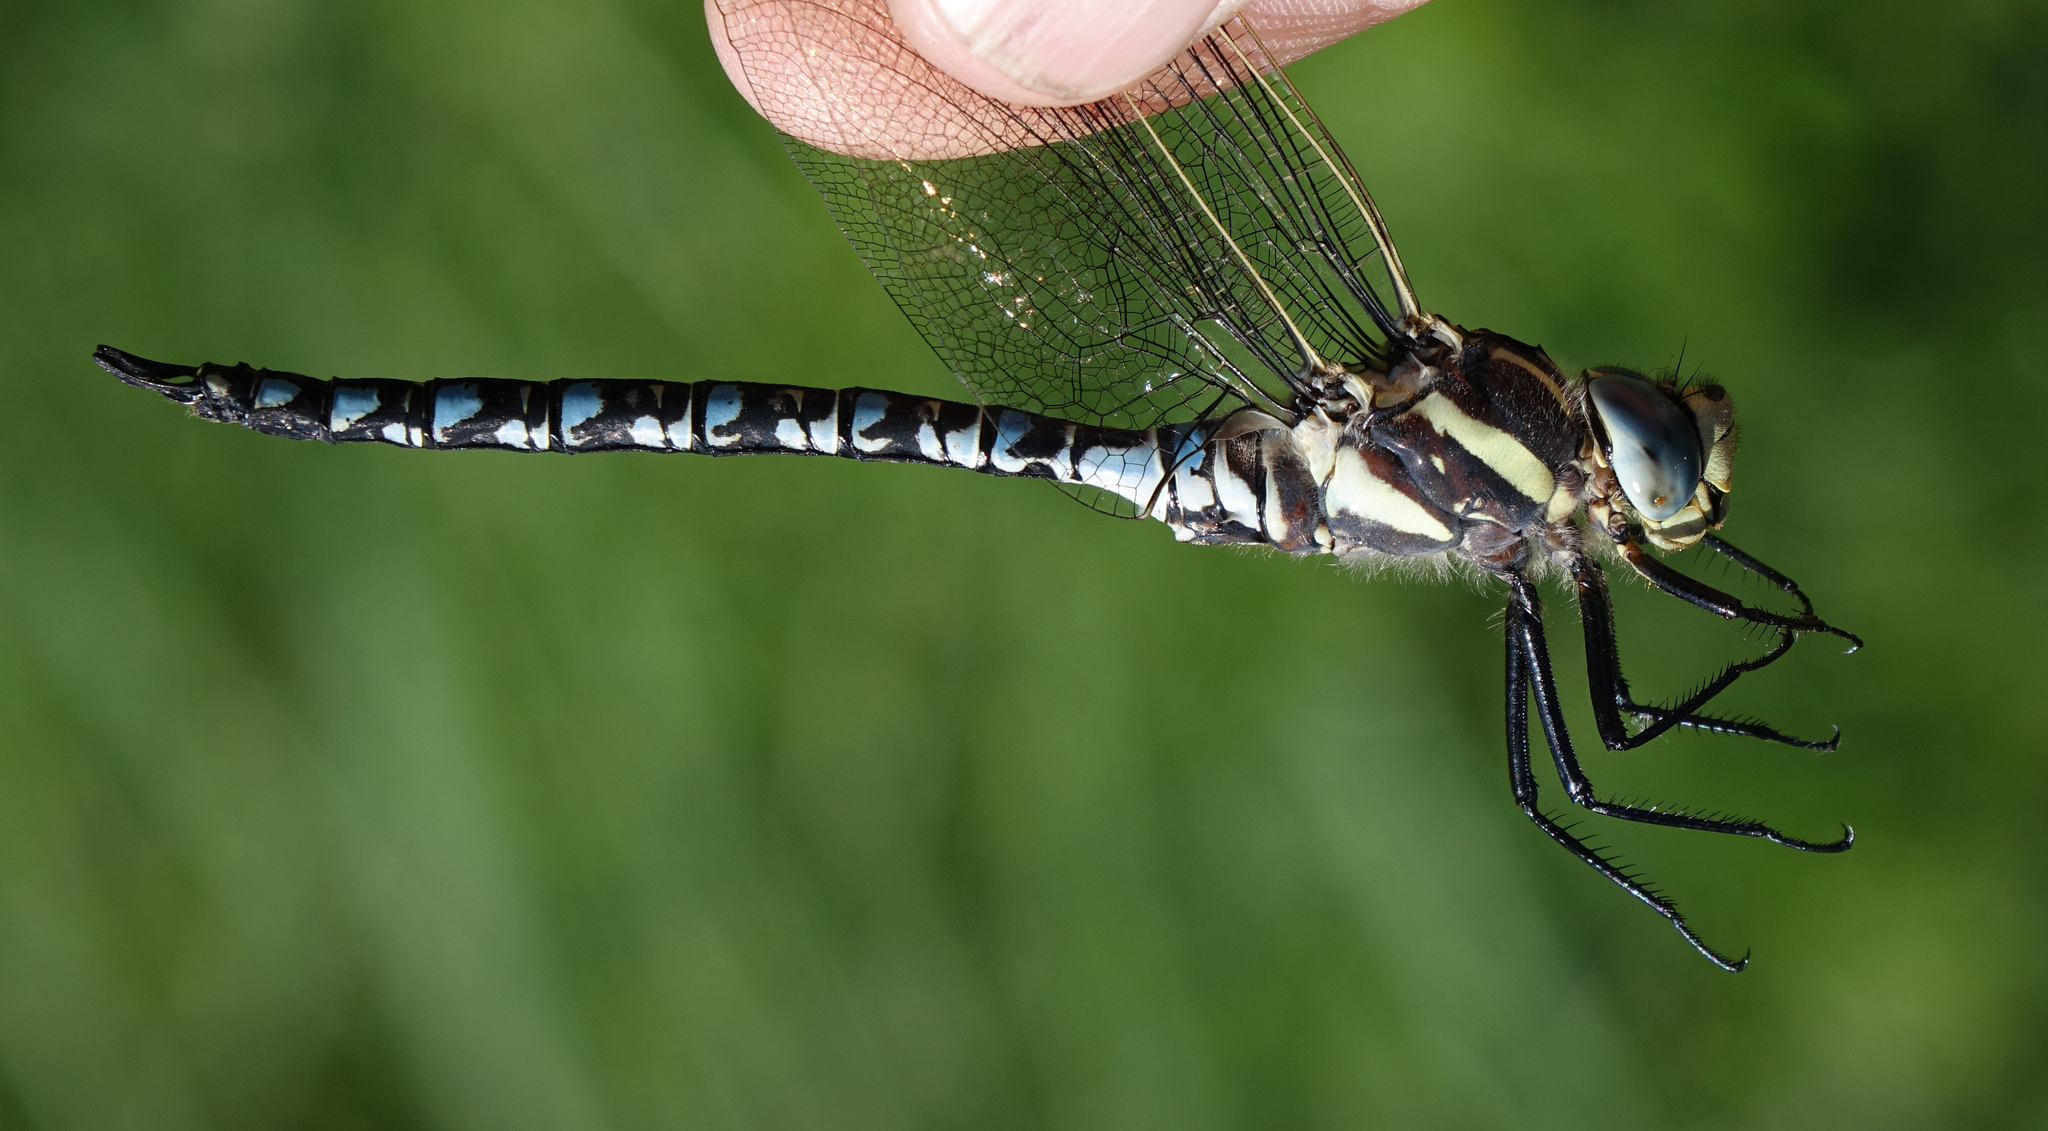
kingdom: Animalia
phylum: Arthropoda
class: Insecta
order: Odonata
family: Aeshnidae
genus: Aeshna
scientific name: Aeshna serrata
